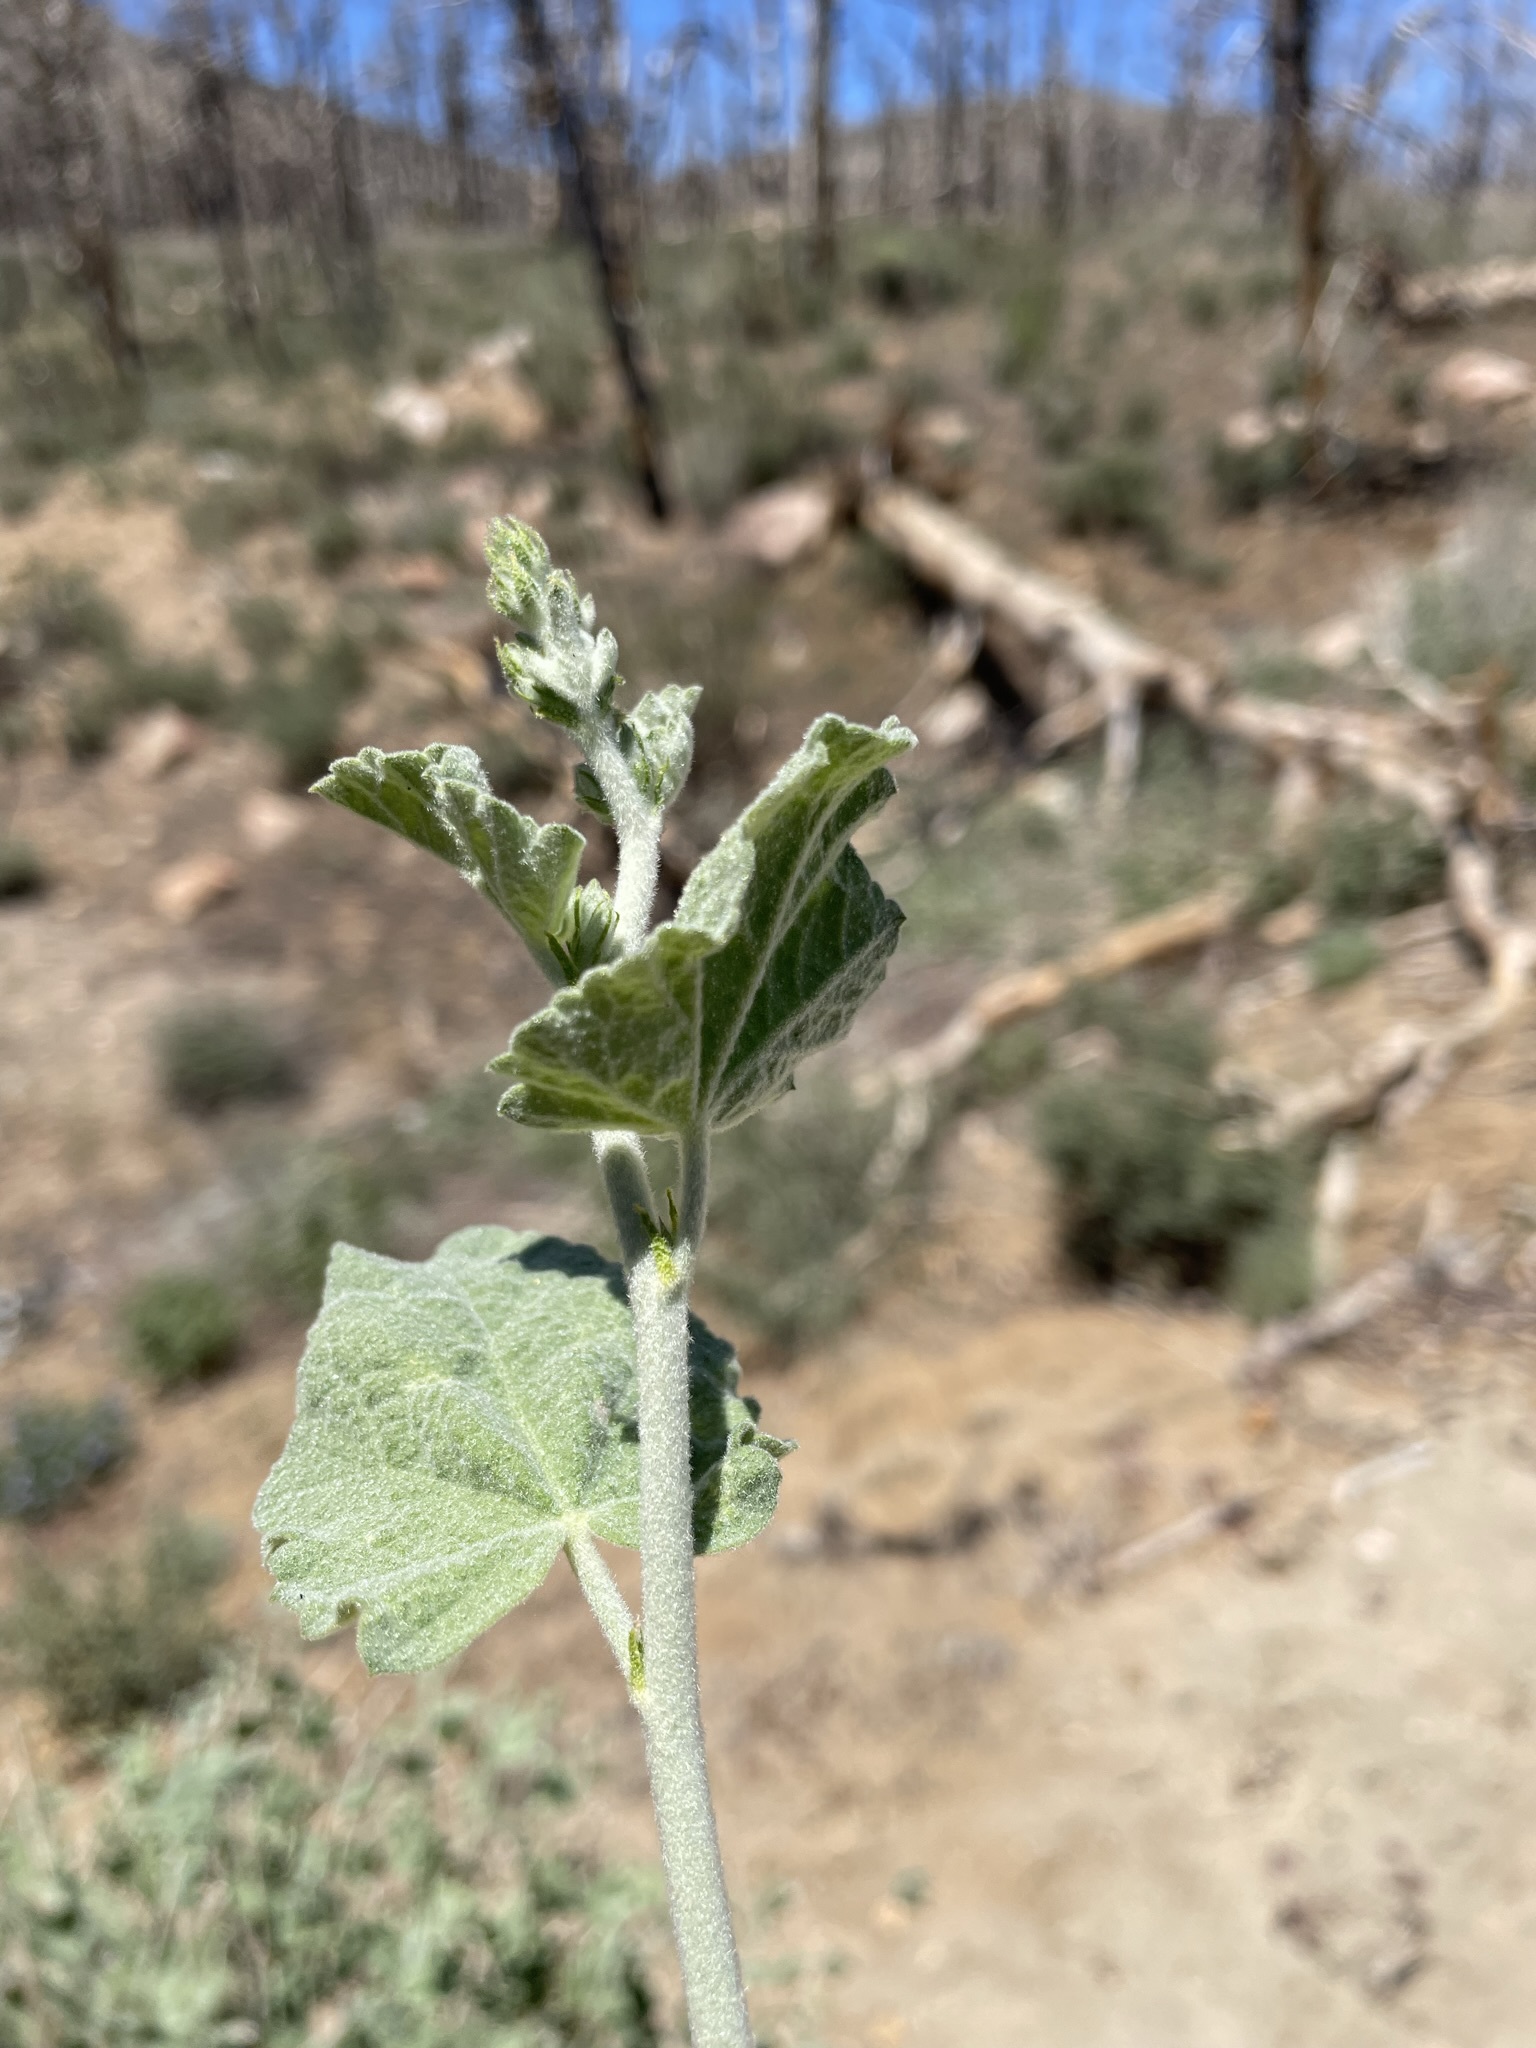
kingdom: Plantae
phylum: Tracheophyta
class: Magnoliopsida
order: Malvales
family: Malvaceae
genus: Malacothamnus
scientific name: Malacothamnus fremontii
